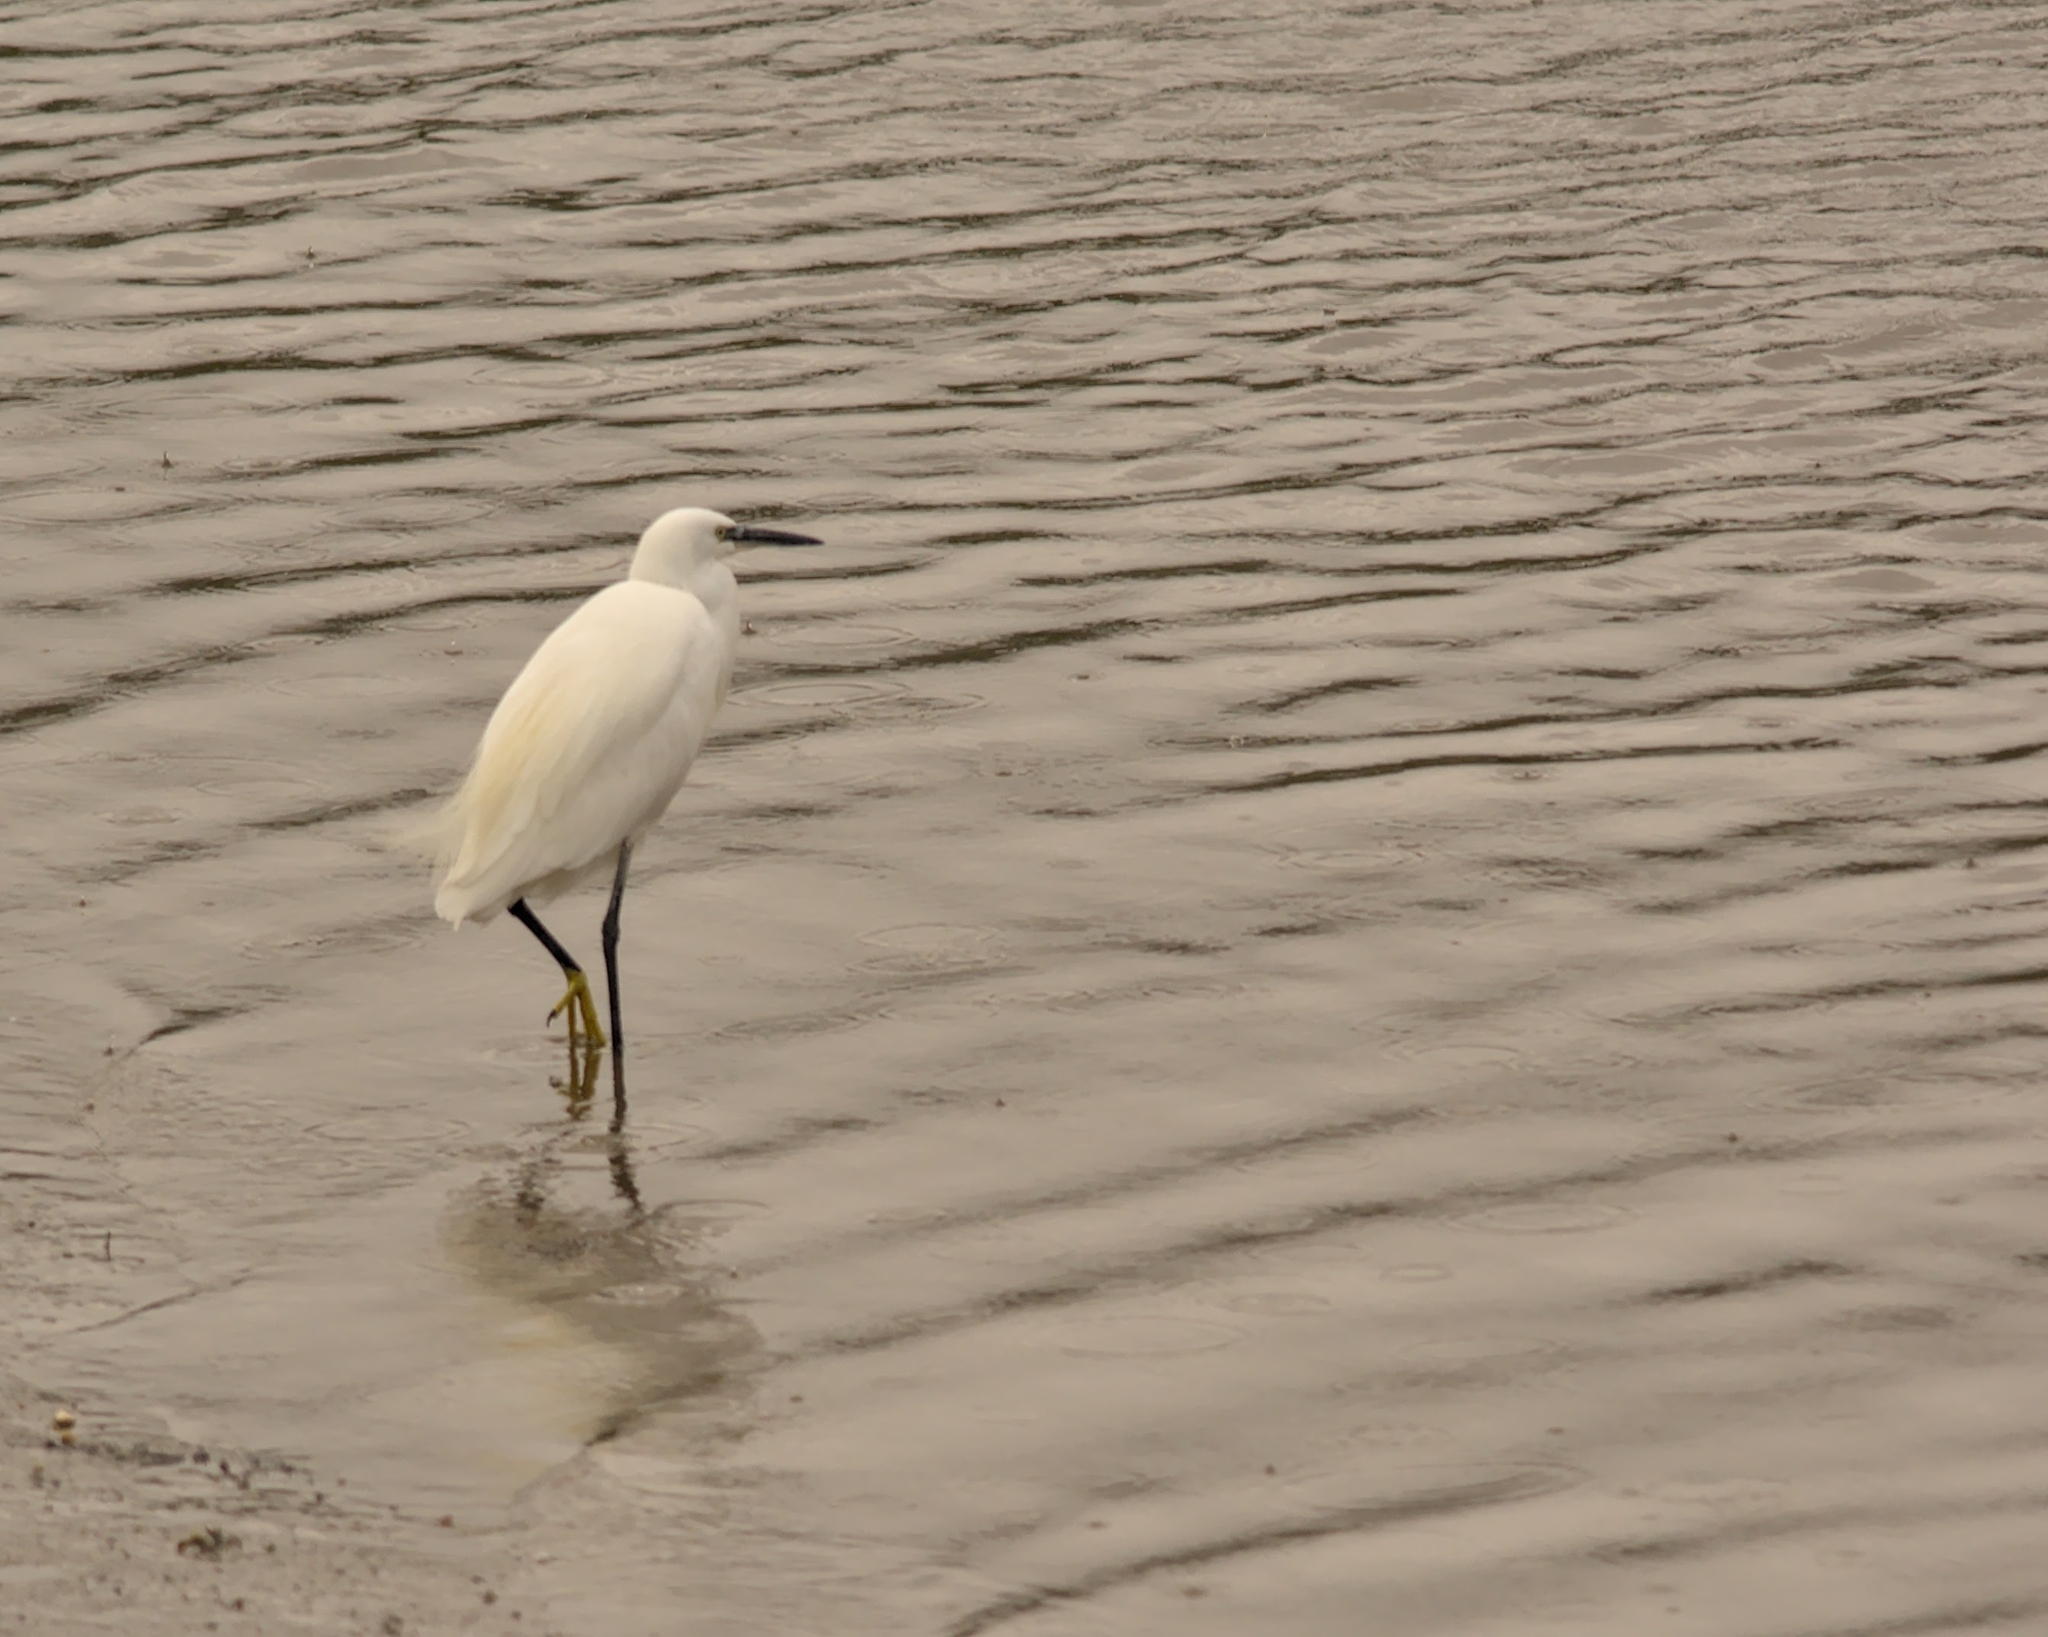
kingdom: Animalia
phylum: Chordata
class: Aves
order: Pelecaniformes
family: Ardeidae
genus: Egretta
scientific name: Egretta garzetta
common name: Little egret
